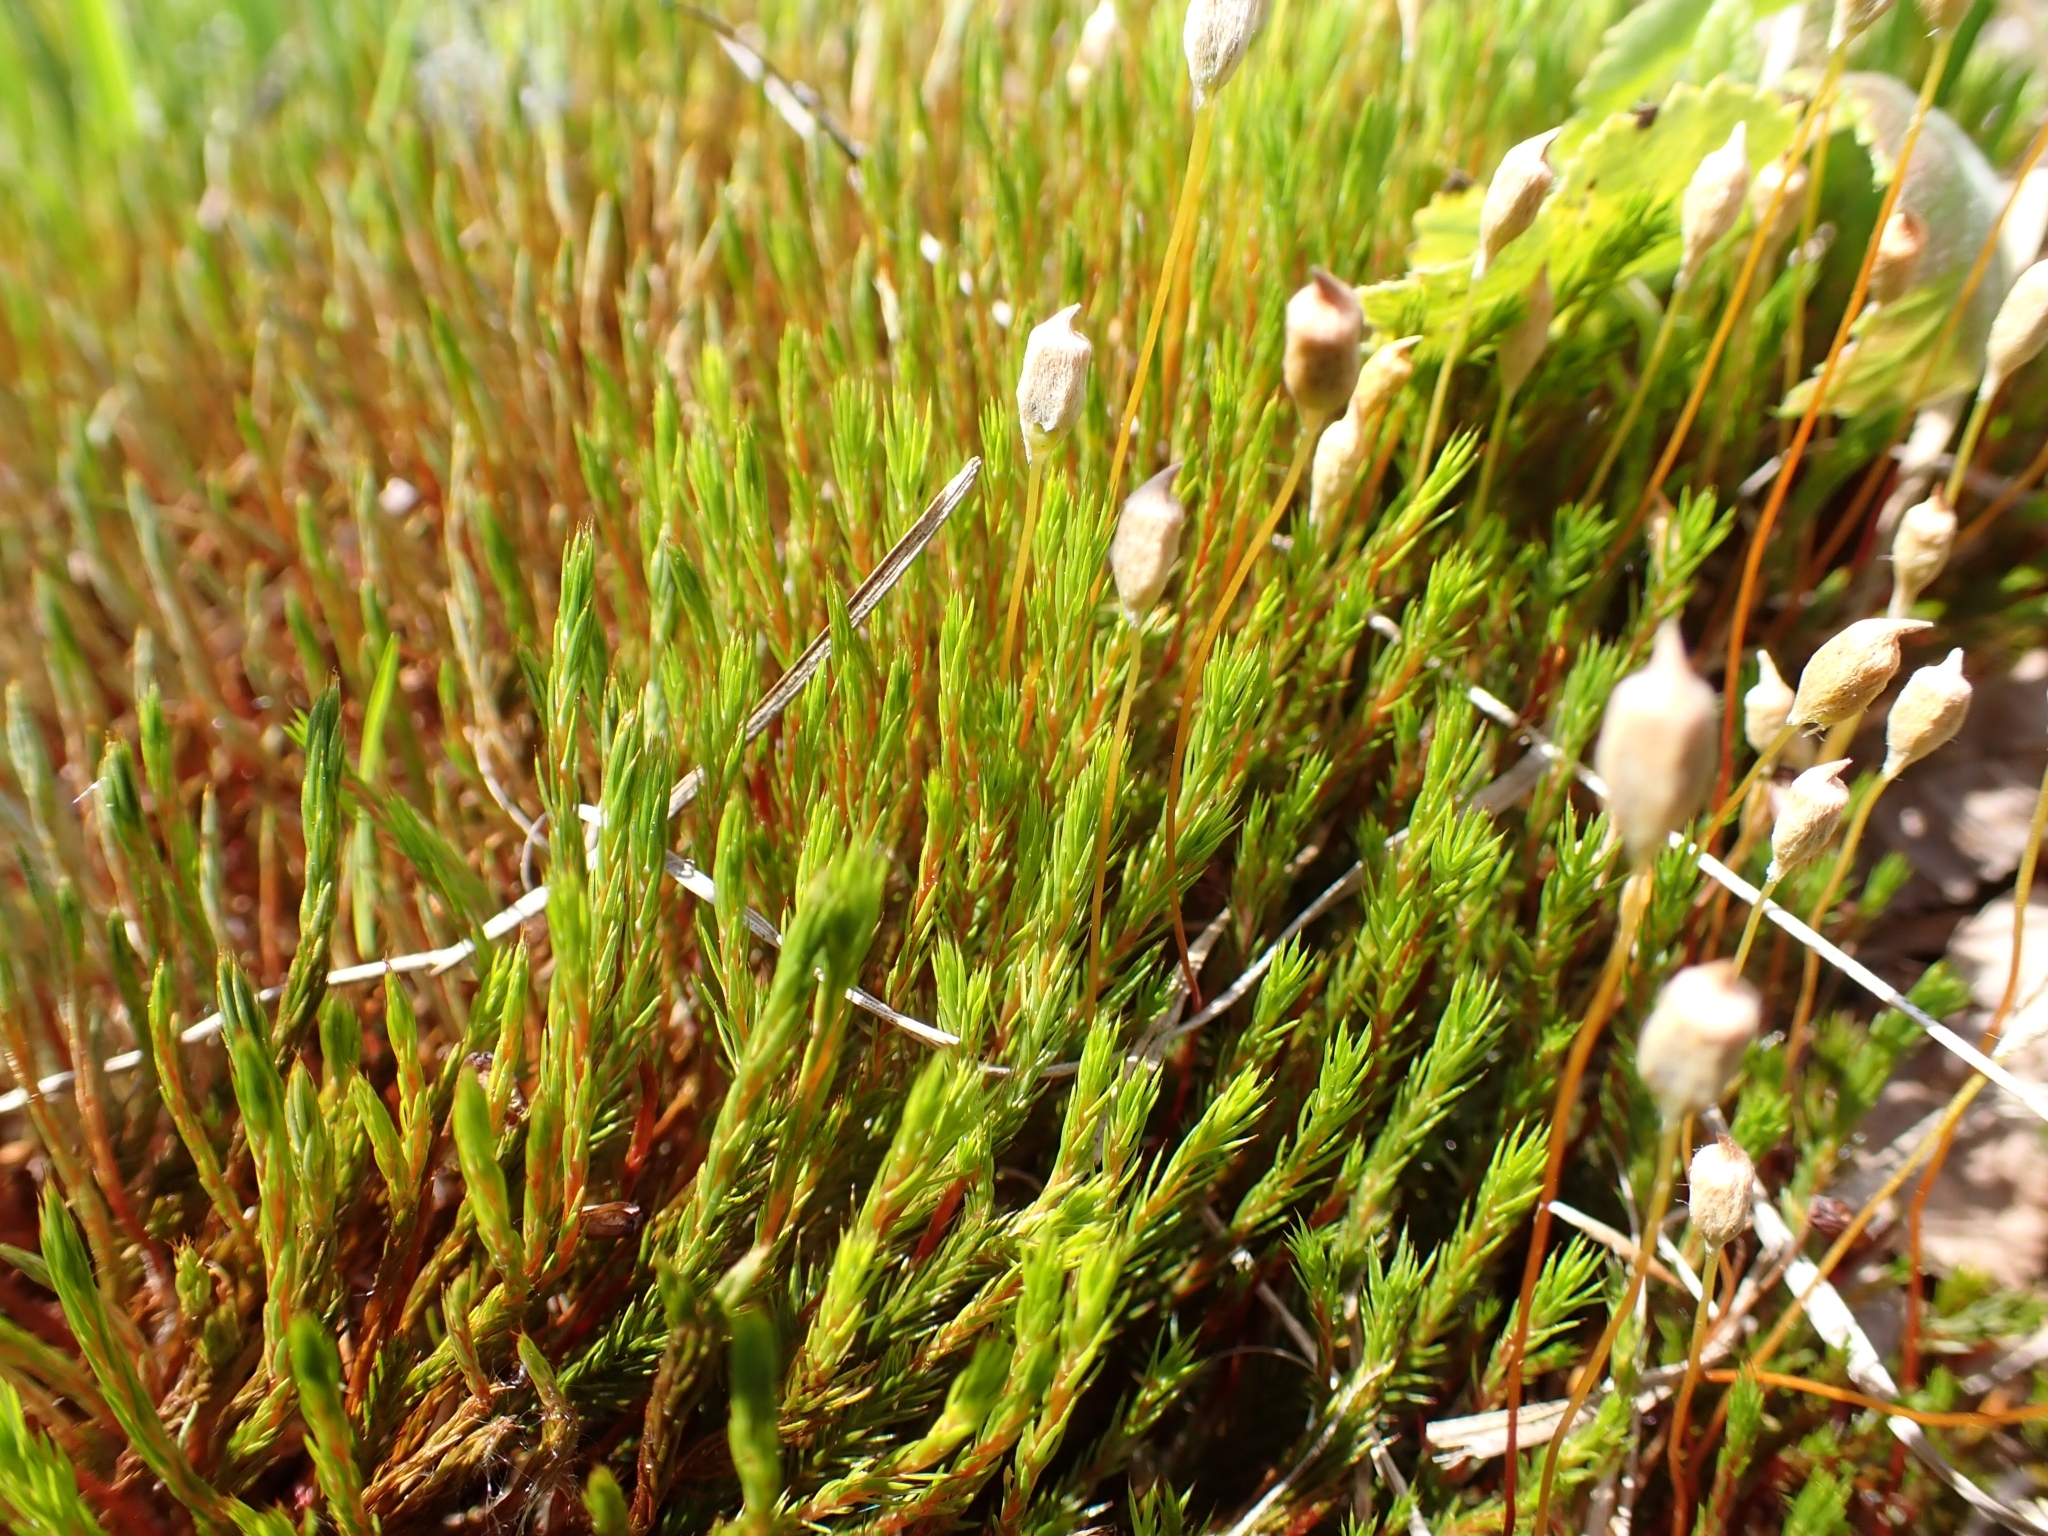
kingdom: Plantae
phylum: Bryophyta
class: Polytrichopsida
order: Polytrichales
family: Polytrichaceae
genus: Polytrichum
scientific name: Polytrichum strictum
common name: Bog haircap moss
